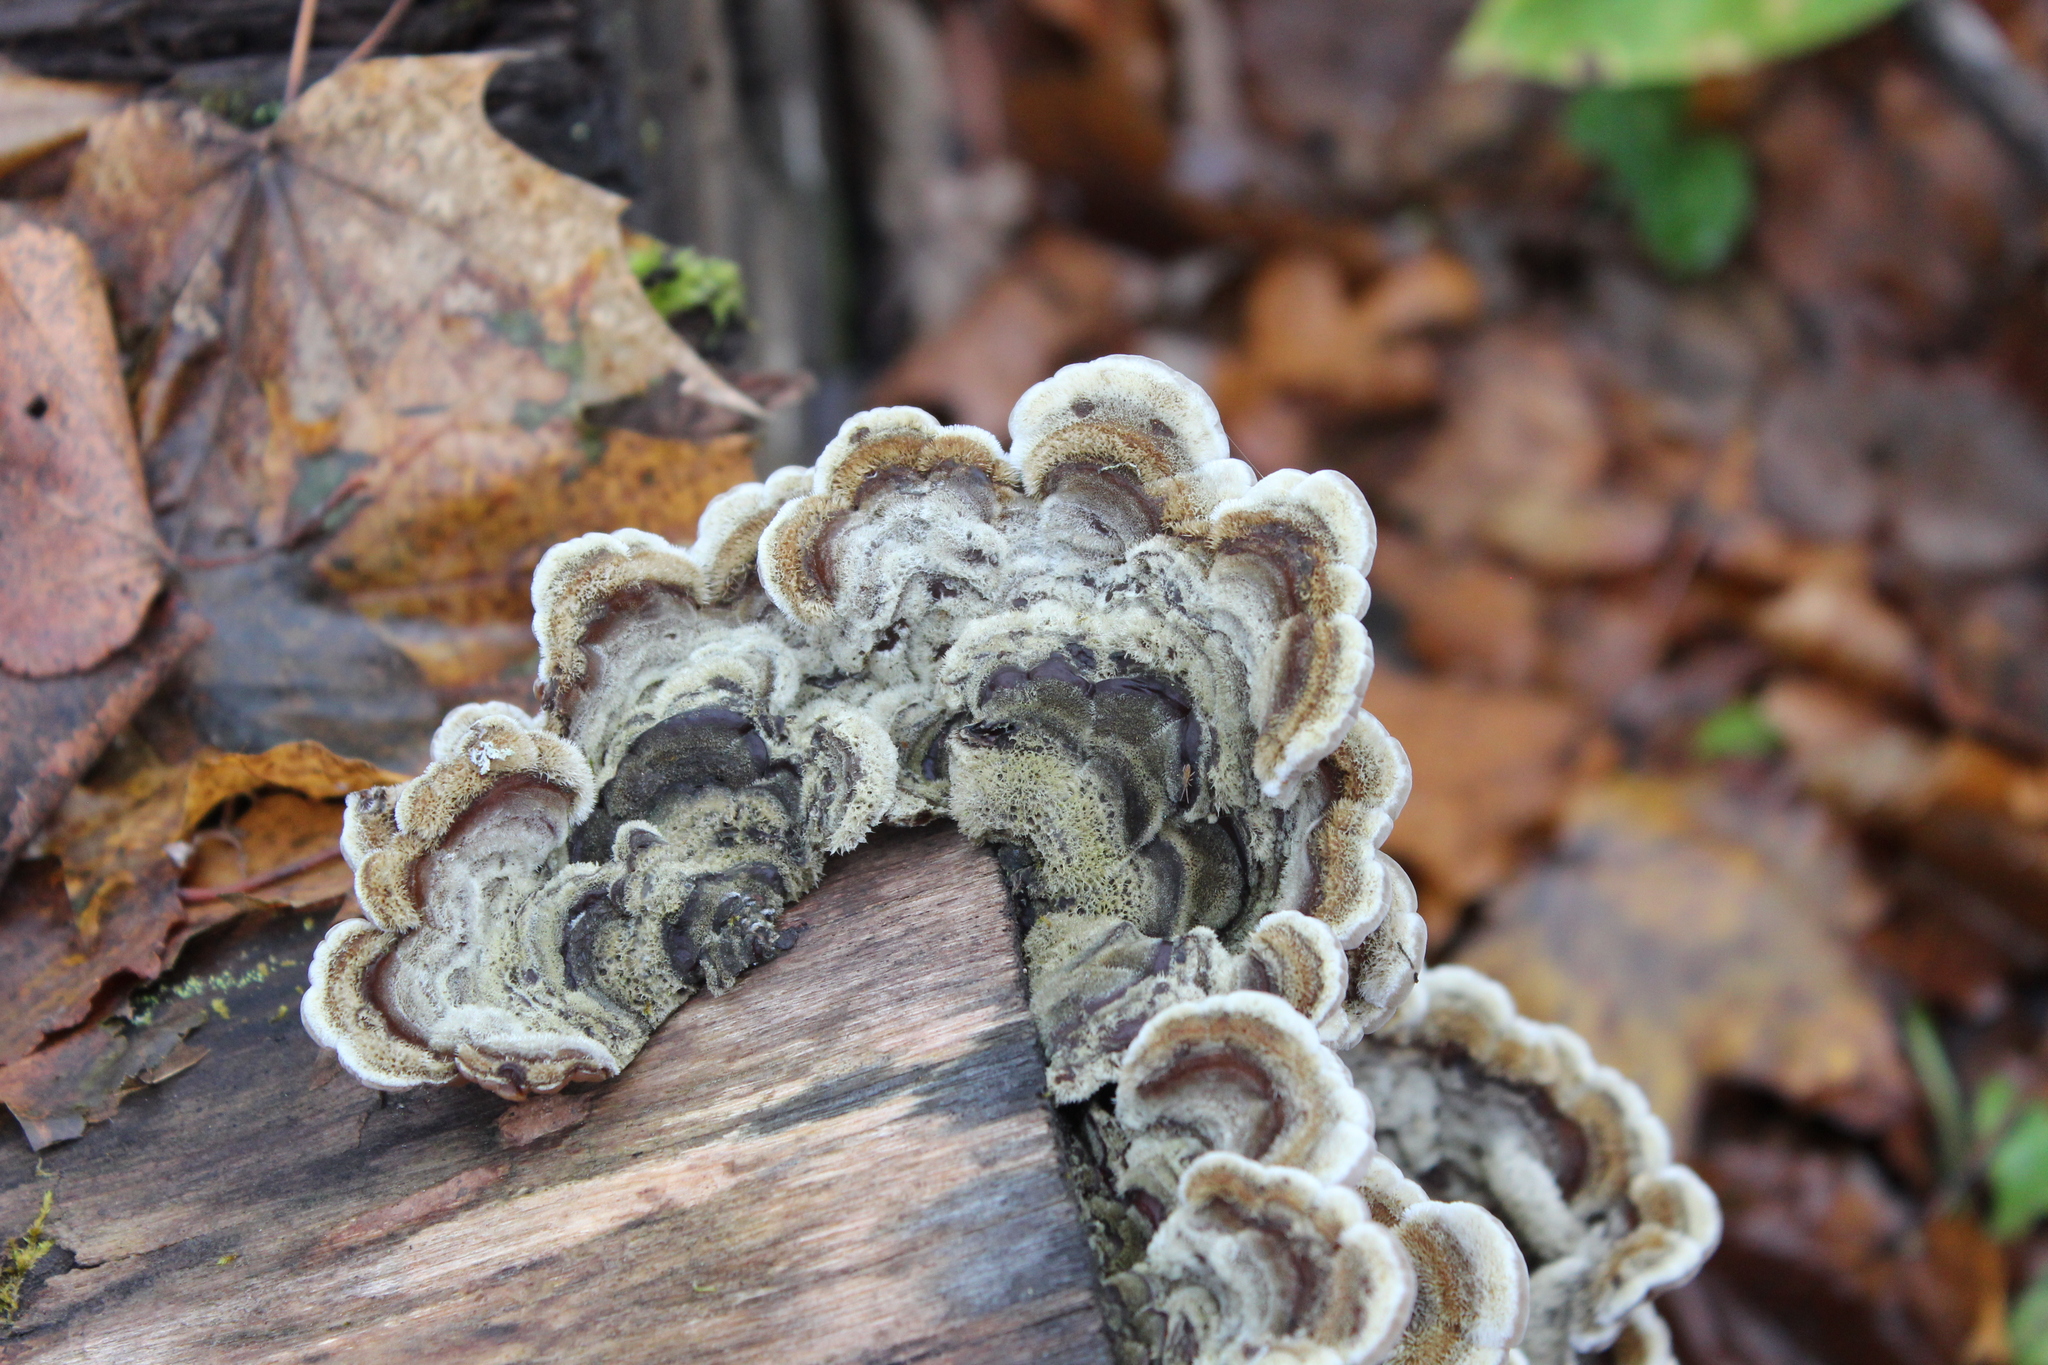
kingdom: Fungi
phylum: Basidiomycota
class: Agaricomycetes
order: Auriculariales
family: Auriculariaceae
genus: Auricularia
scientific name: Auricularia mesenterica
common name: Tripe fungus
